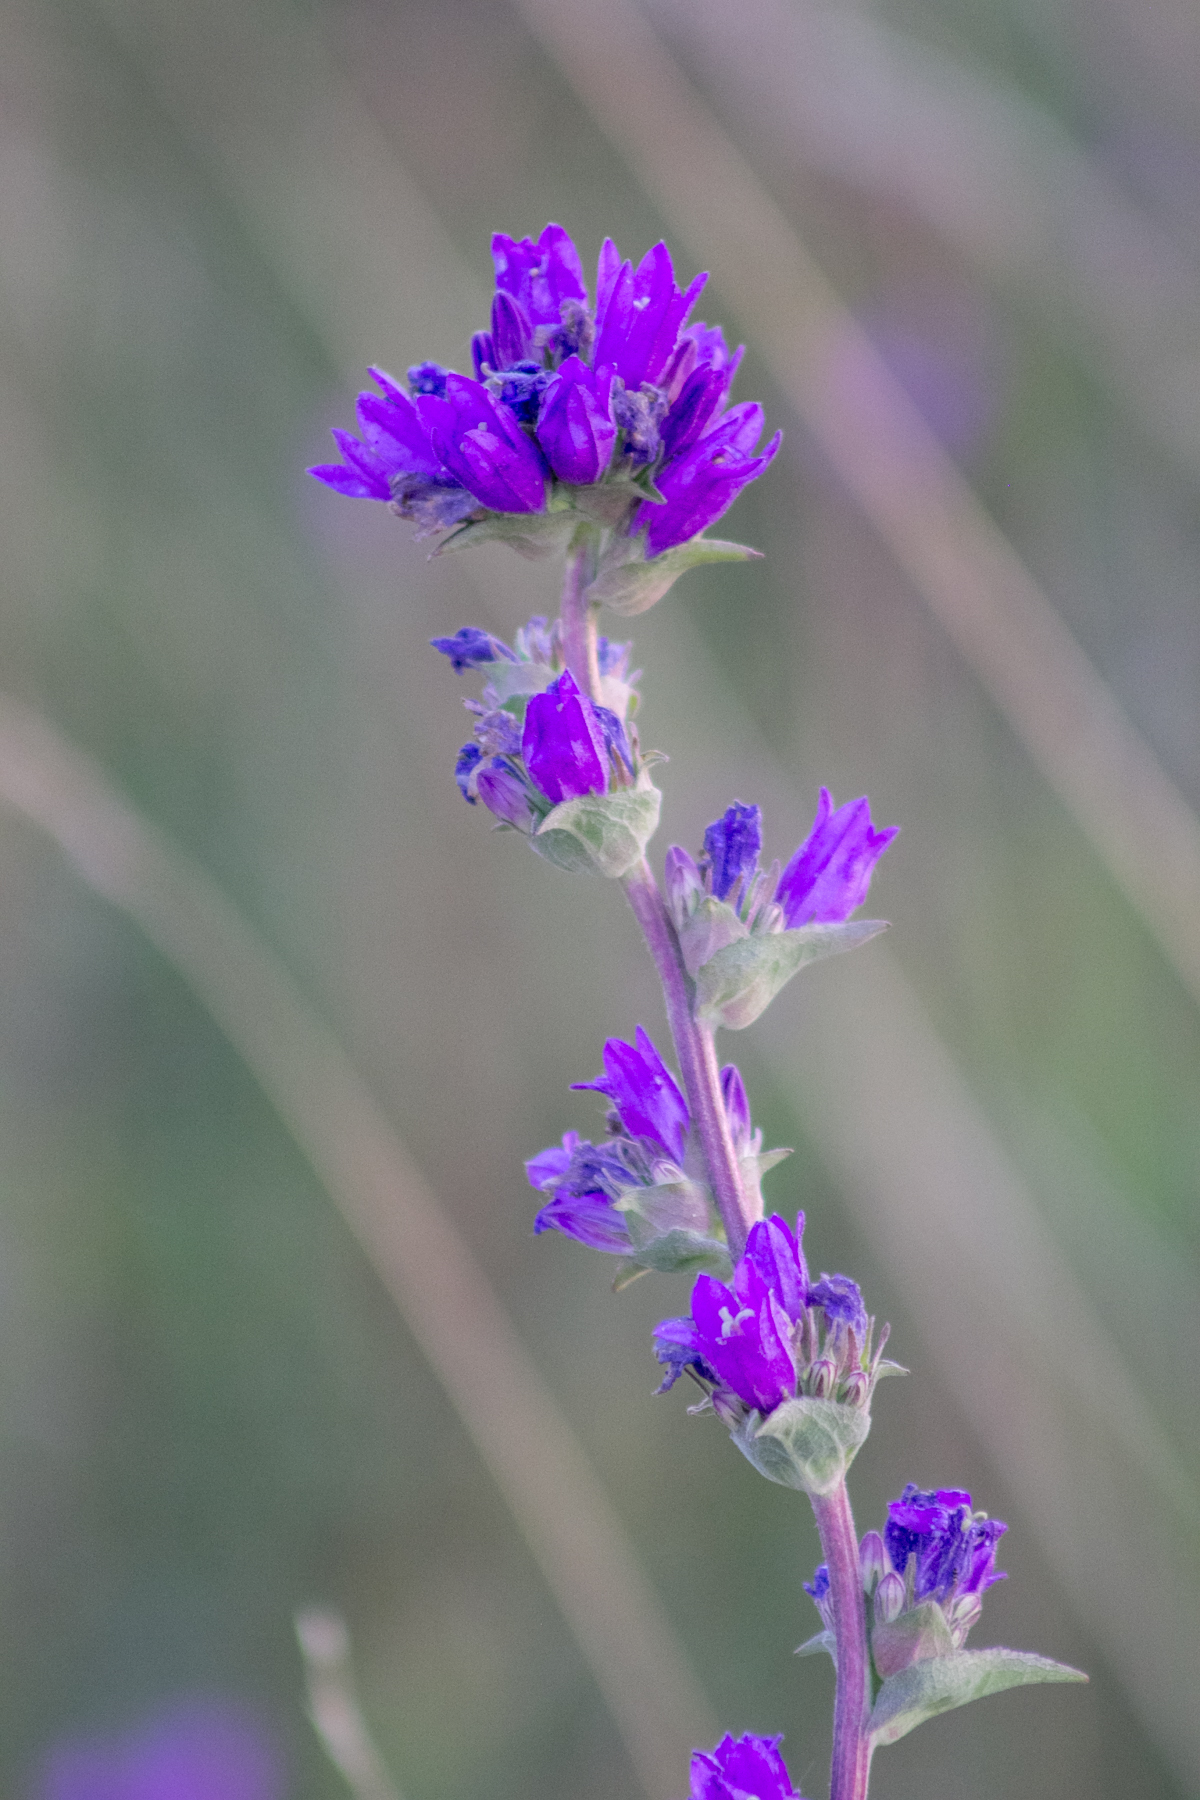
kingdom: Plantae
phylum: Tracheophyta
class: Magnoliopsida
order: Asterales
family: Campanulaceae
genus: Campanula
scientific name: Campanula glomerata
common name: Clustered bellflower
